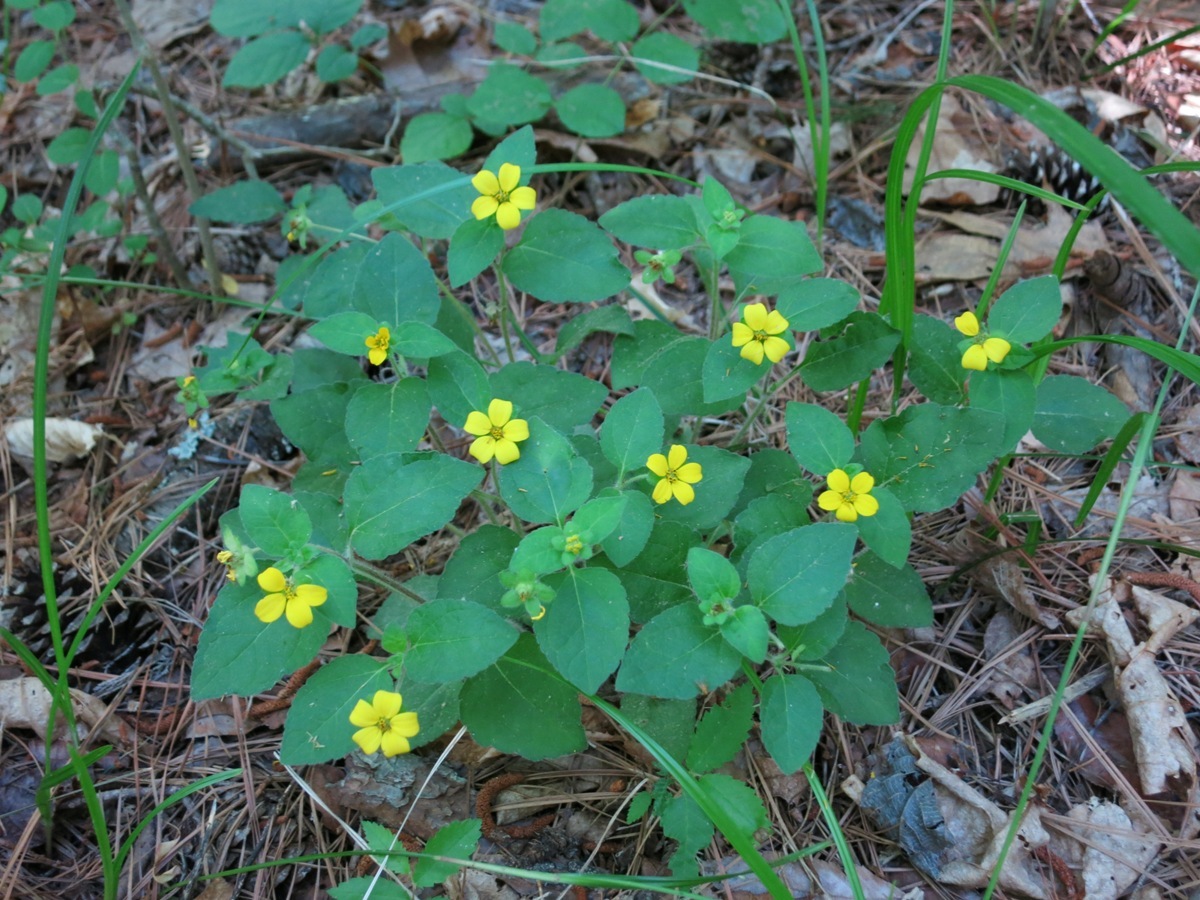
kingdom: Plantae
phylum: Tracheophyta
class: Magnoliopsida
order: Asterales
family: Asteraceae
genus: Chrysogonum
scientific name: Chrysogonum virginianum
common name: Golden-knee
